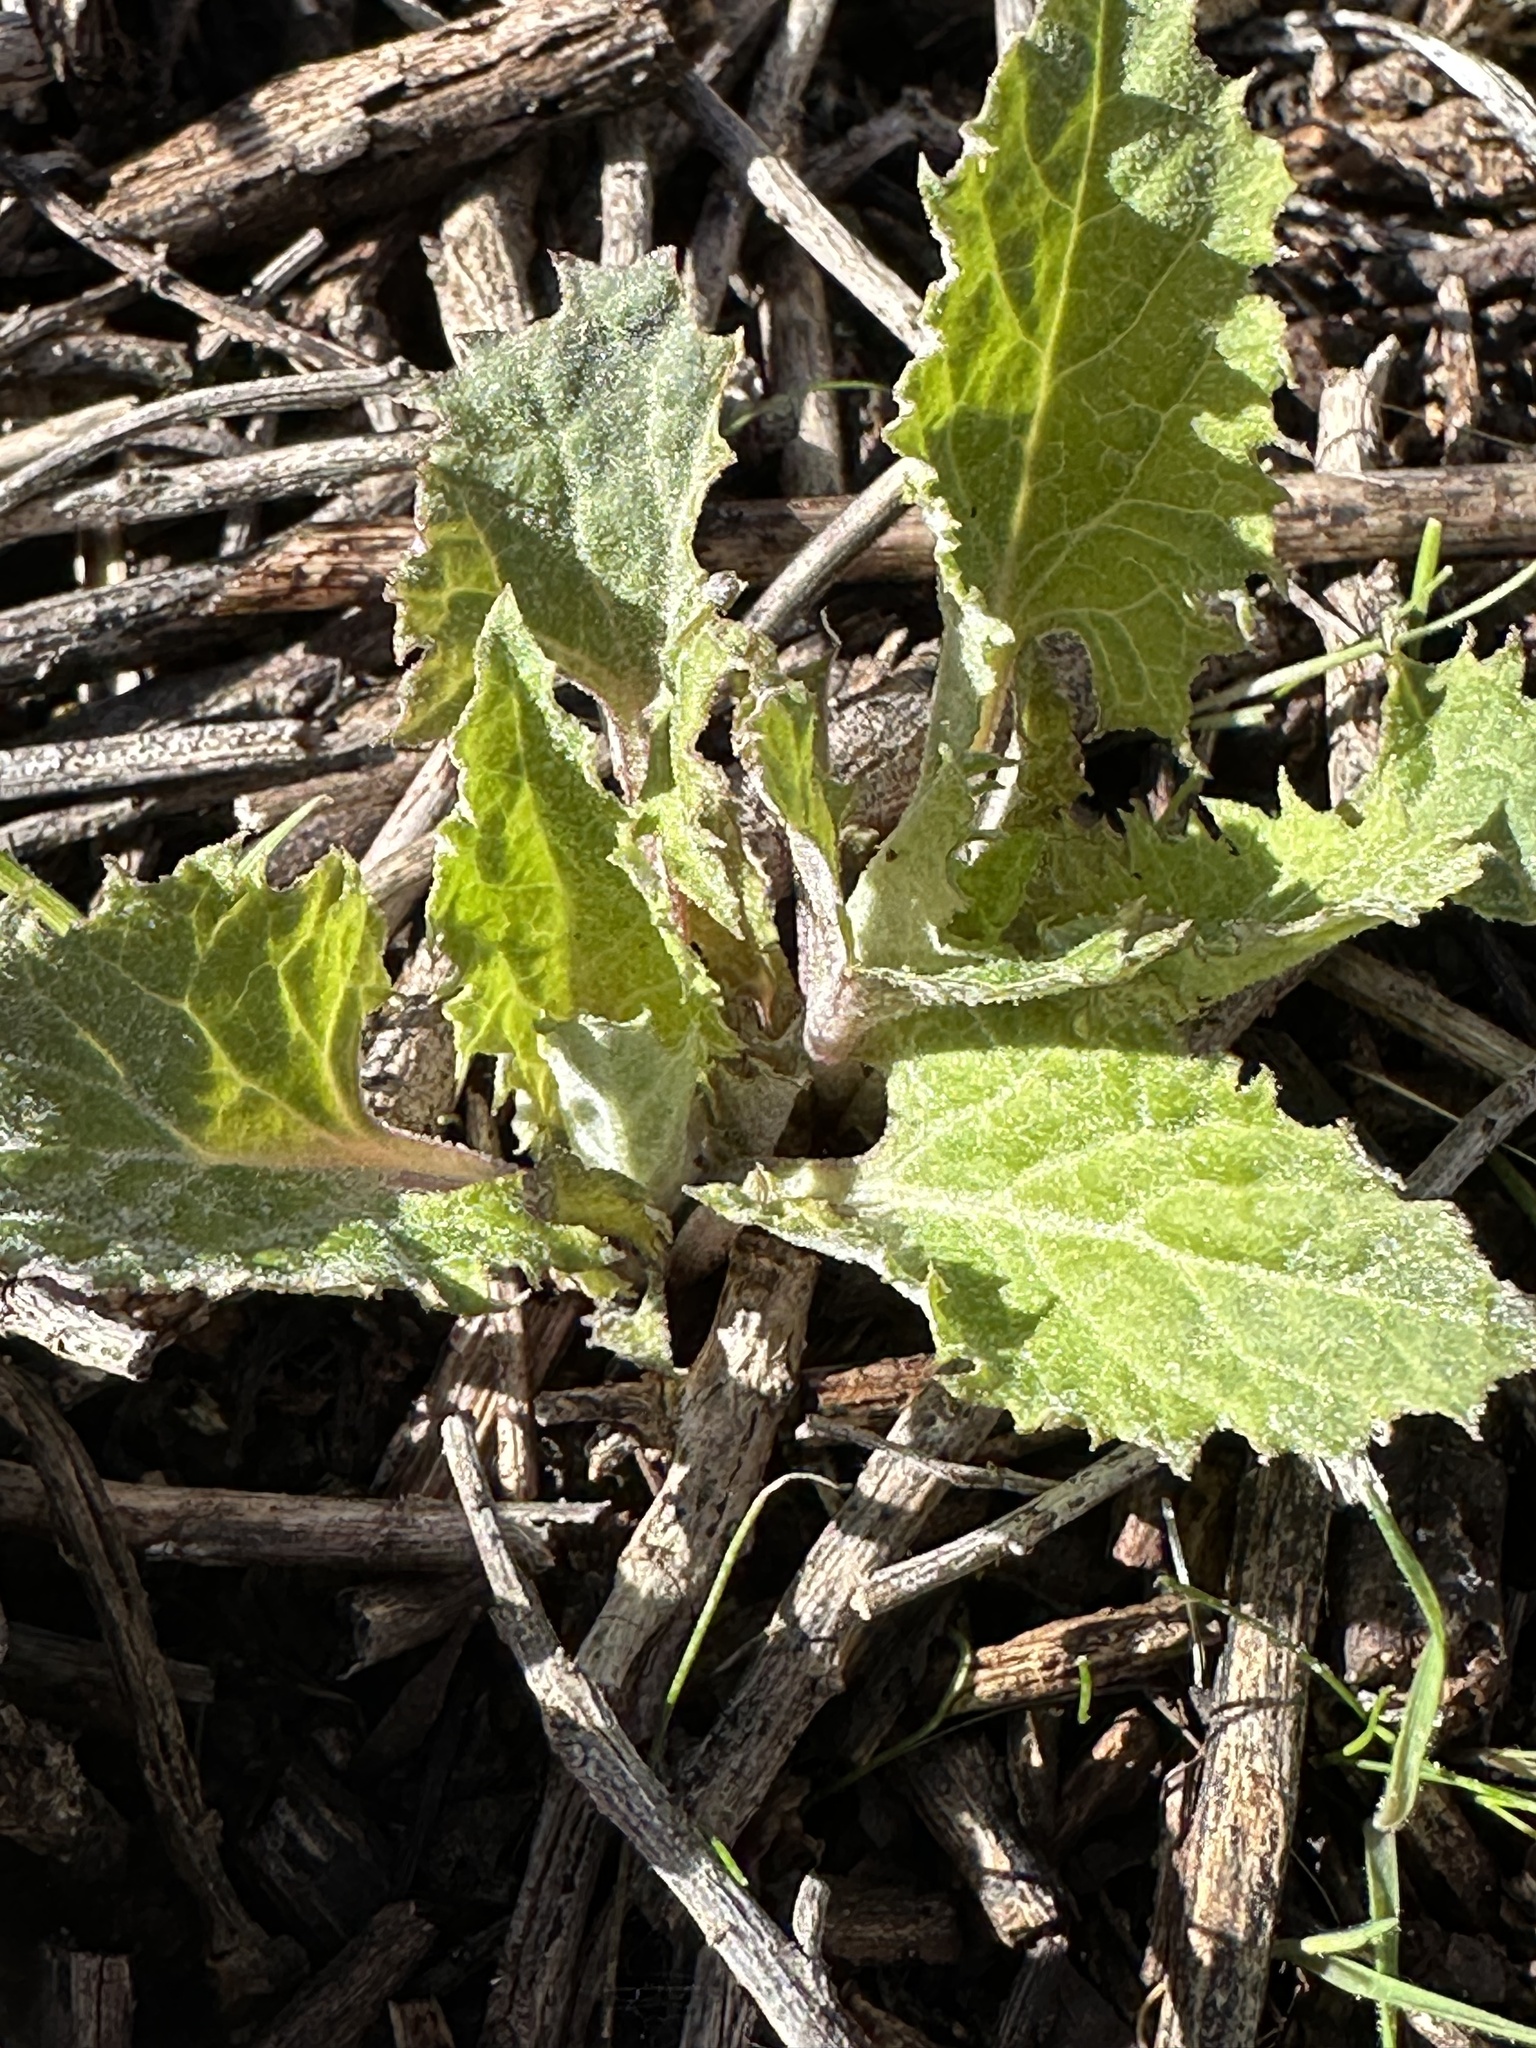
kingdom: Plantae
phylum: Tracheophyta
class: Magnoliopsida
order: Caryophyllales
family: Amaranthaceae
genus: Blitum
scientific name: Blitum californicum
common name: California goosefoot
